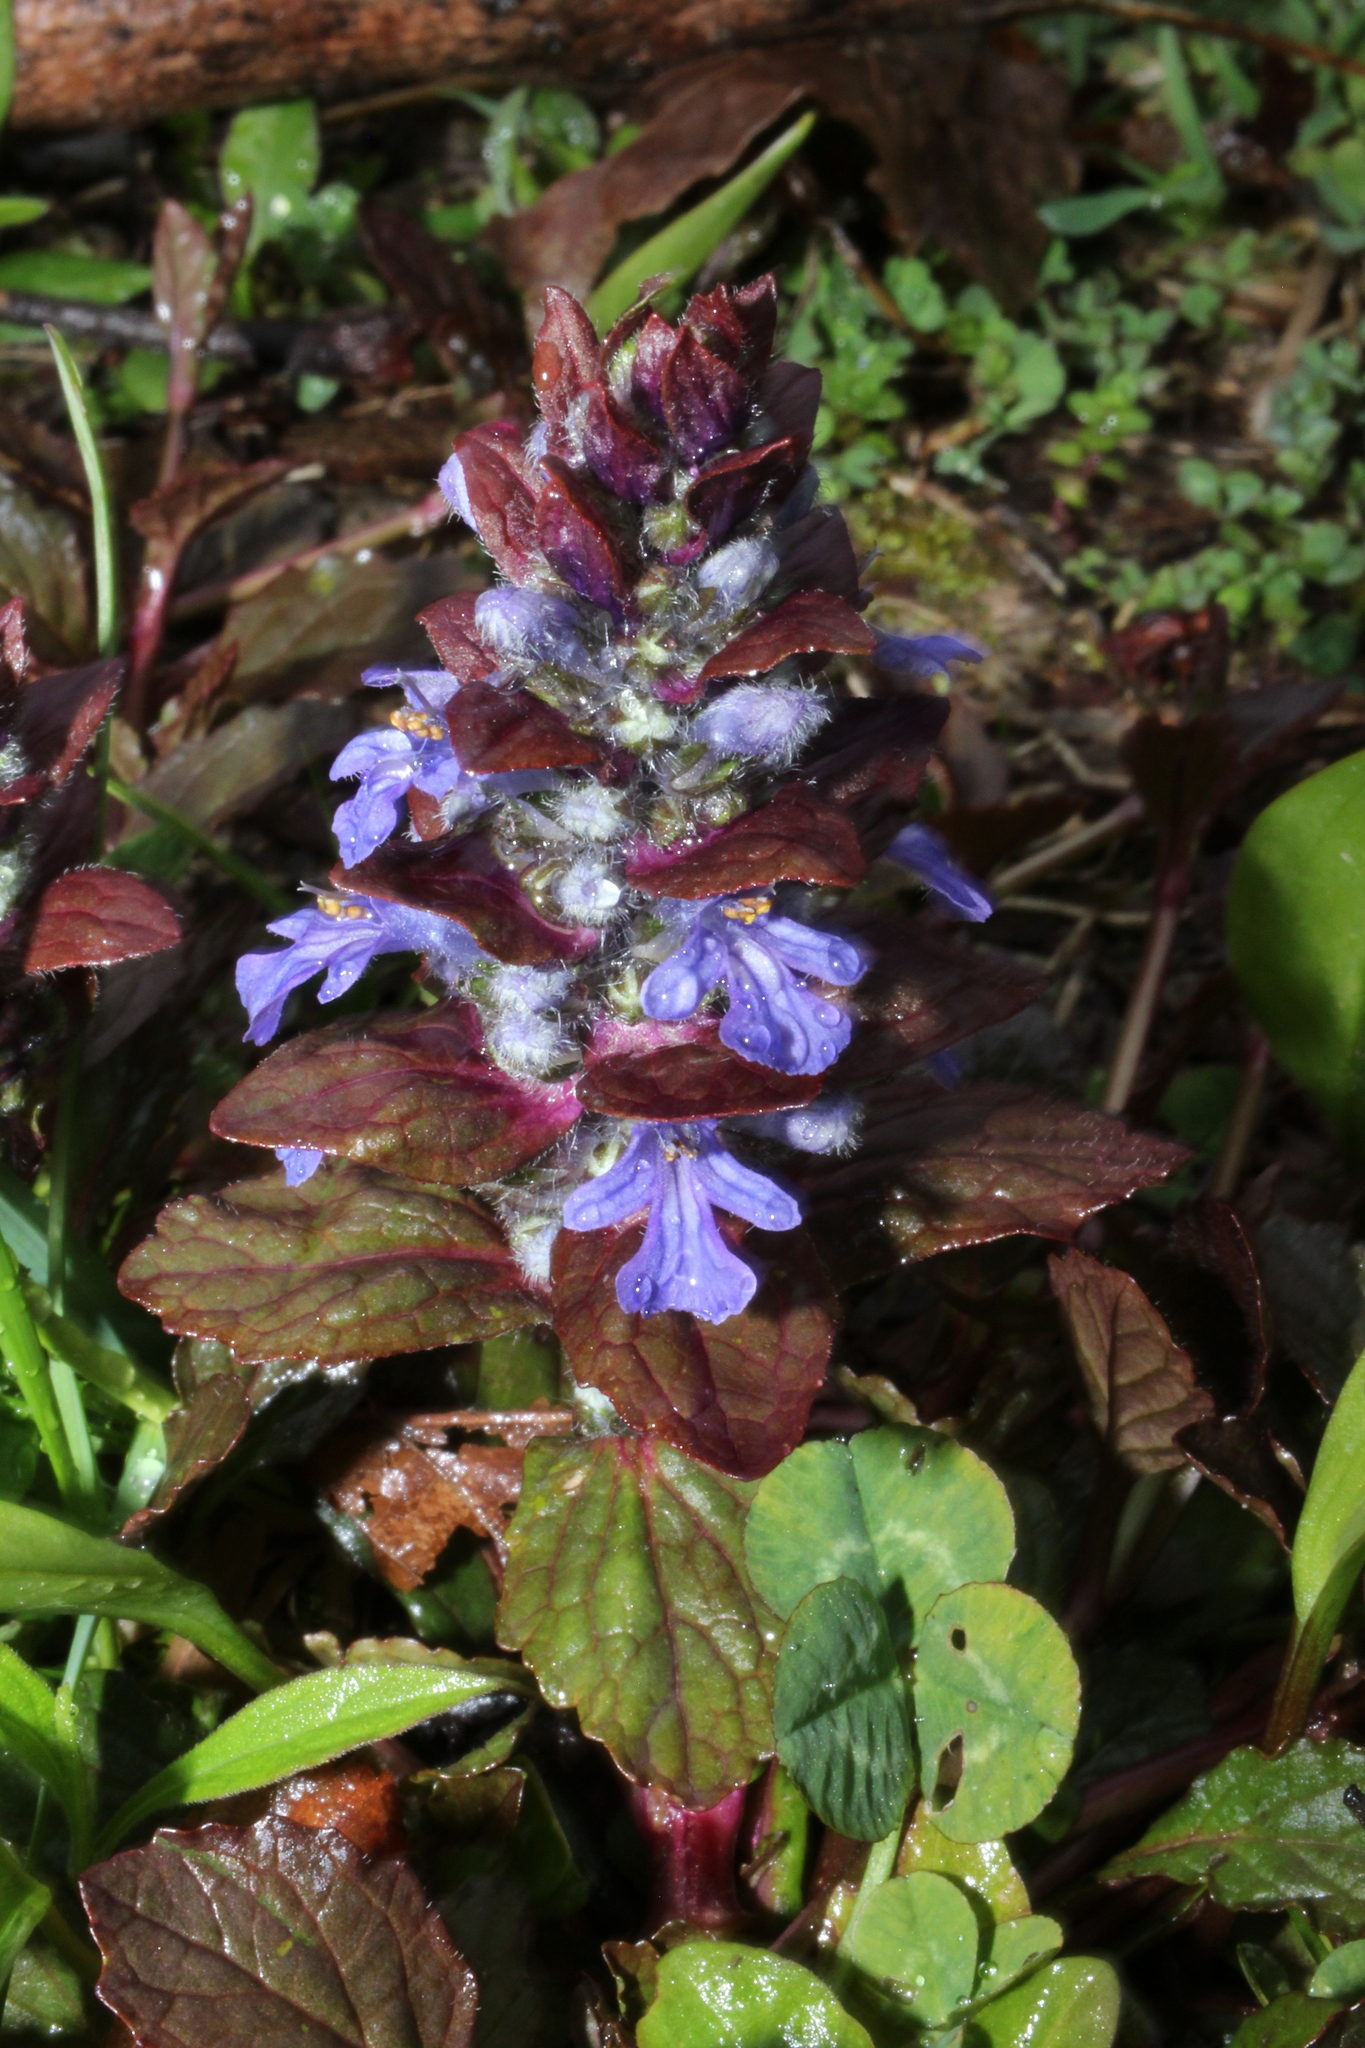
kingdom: Plantae
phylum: Tracheophyta
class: Magnoliopsida
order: Lamiales
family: Lamiaceae
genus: Ajuga
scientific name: Ajuga reptans
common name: Bugle
